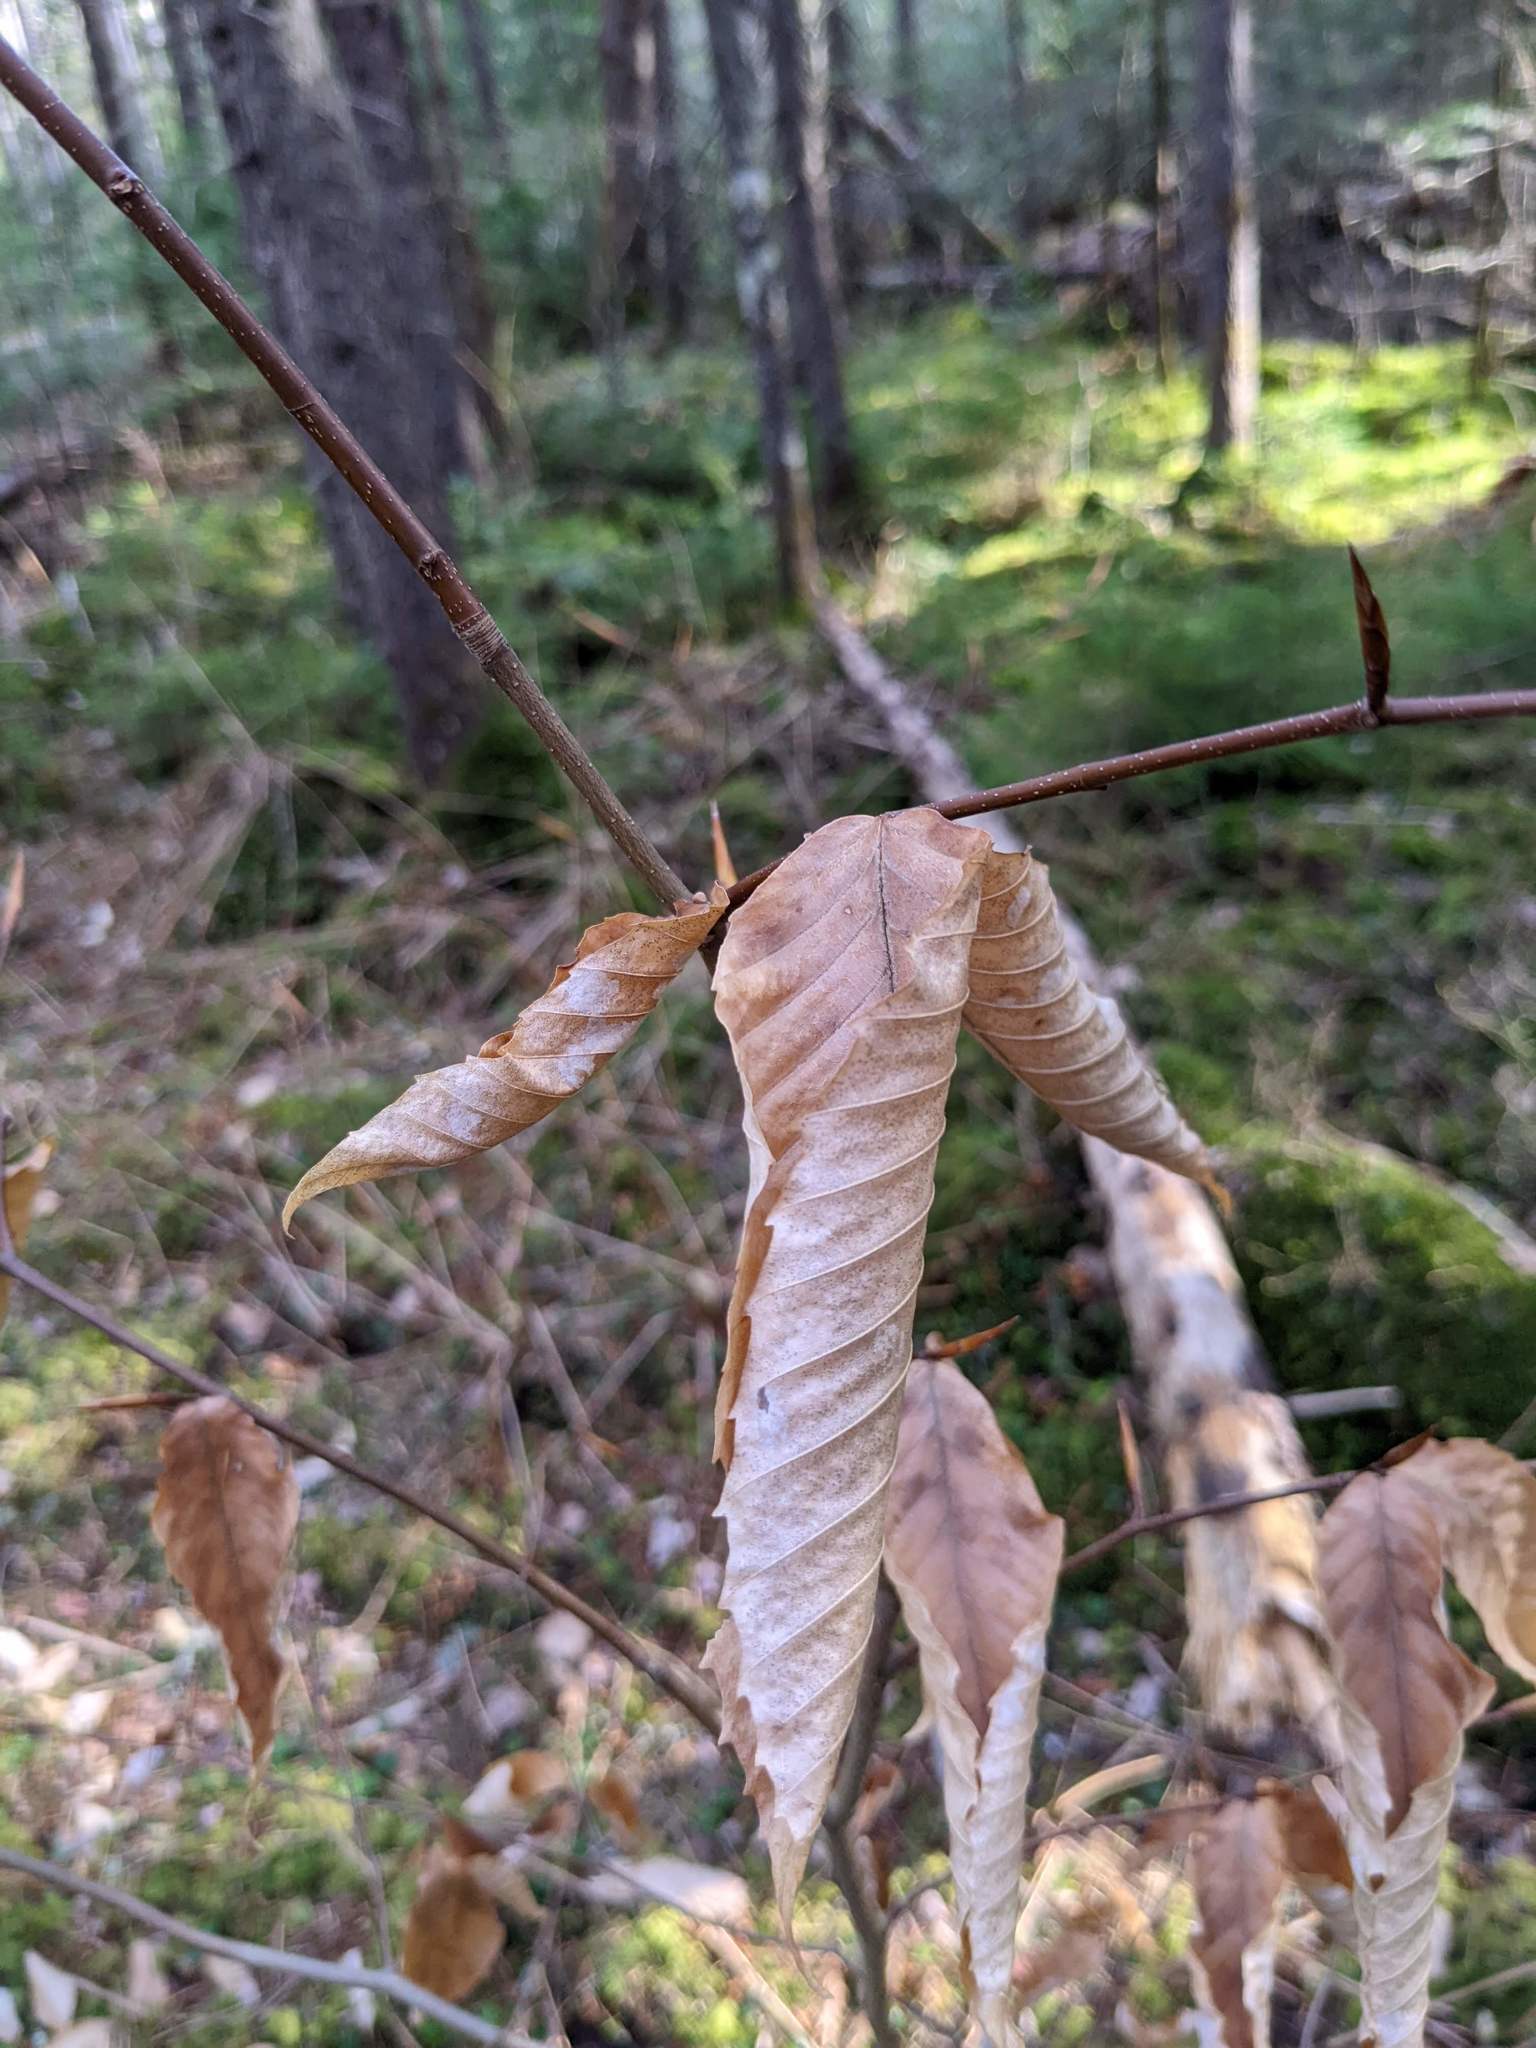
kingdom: Plantae
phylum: Tracheophyta
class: Magnoliopsida
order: Fagales
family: Fagaceae
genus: Fagus
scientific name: Fagus grandifolia
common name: American beech
